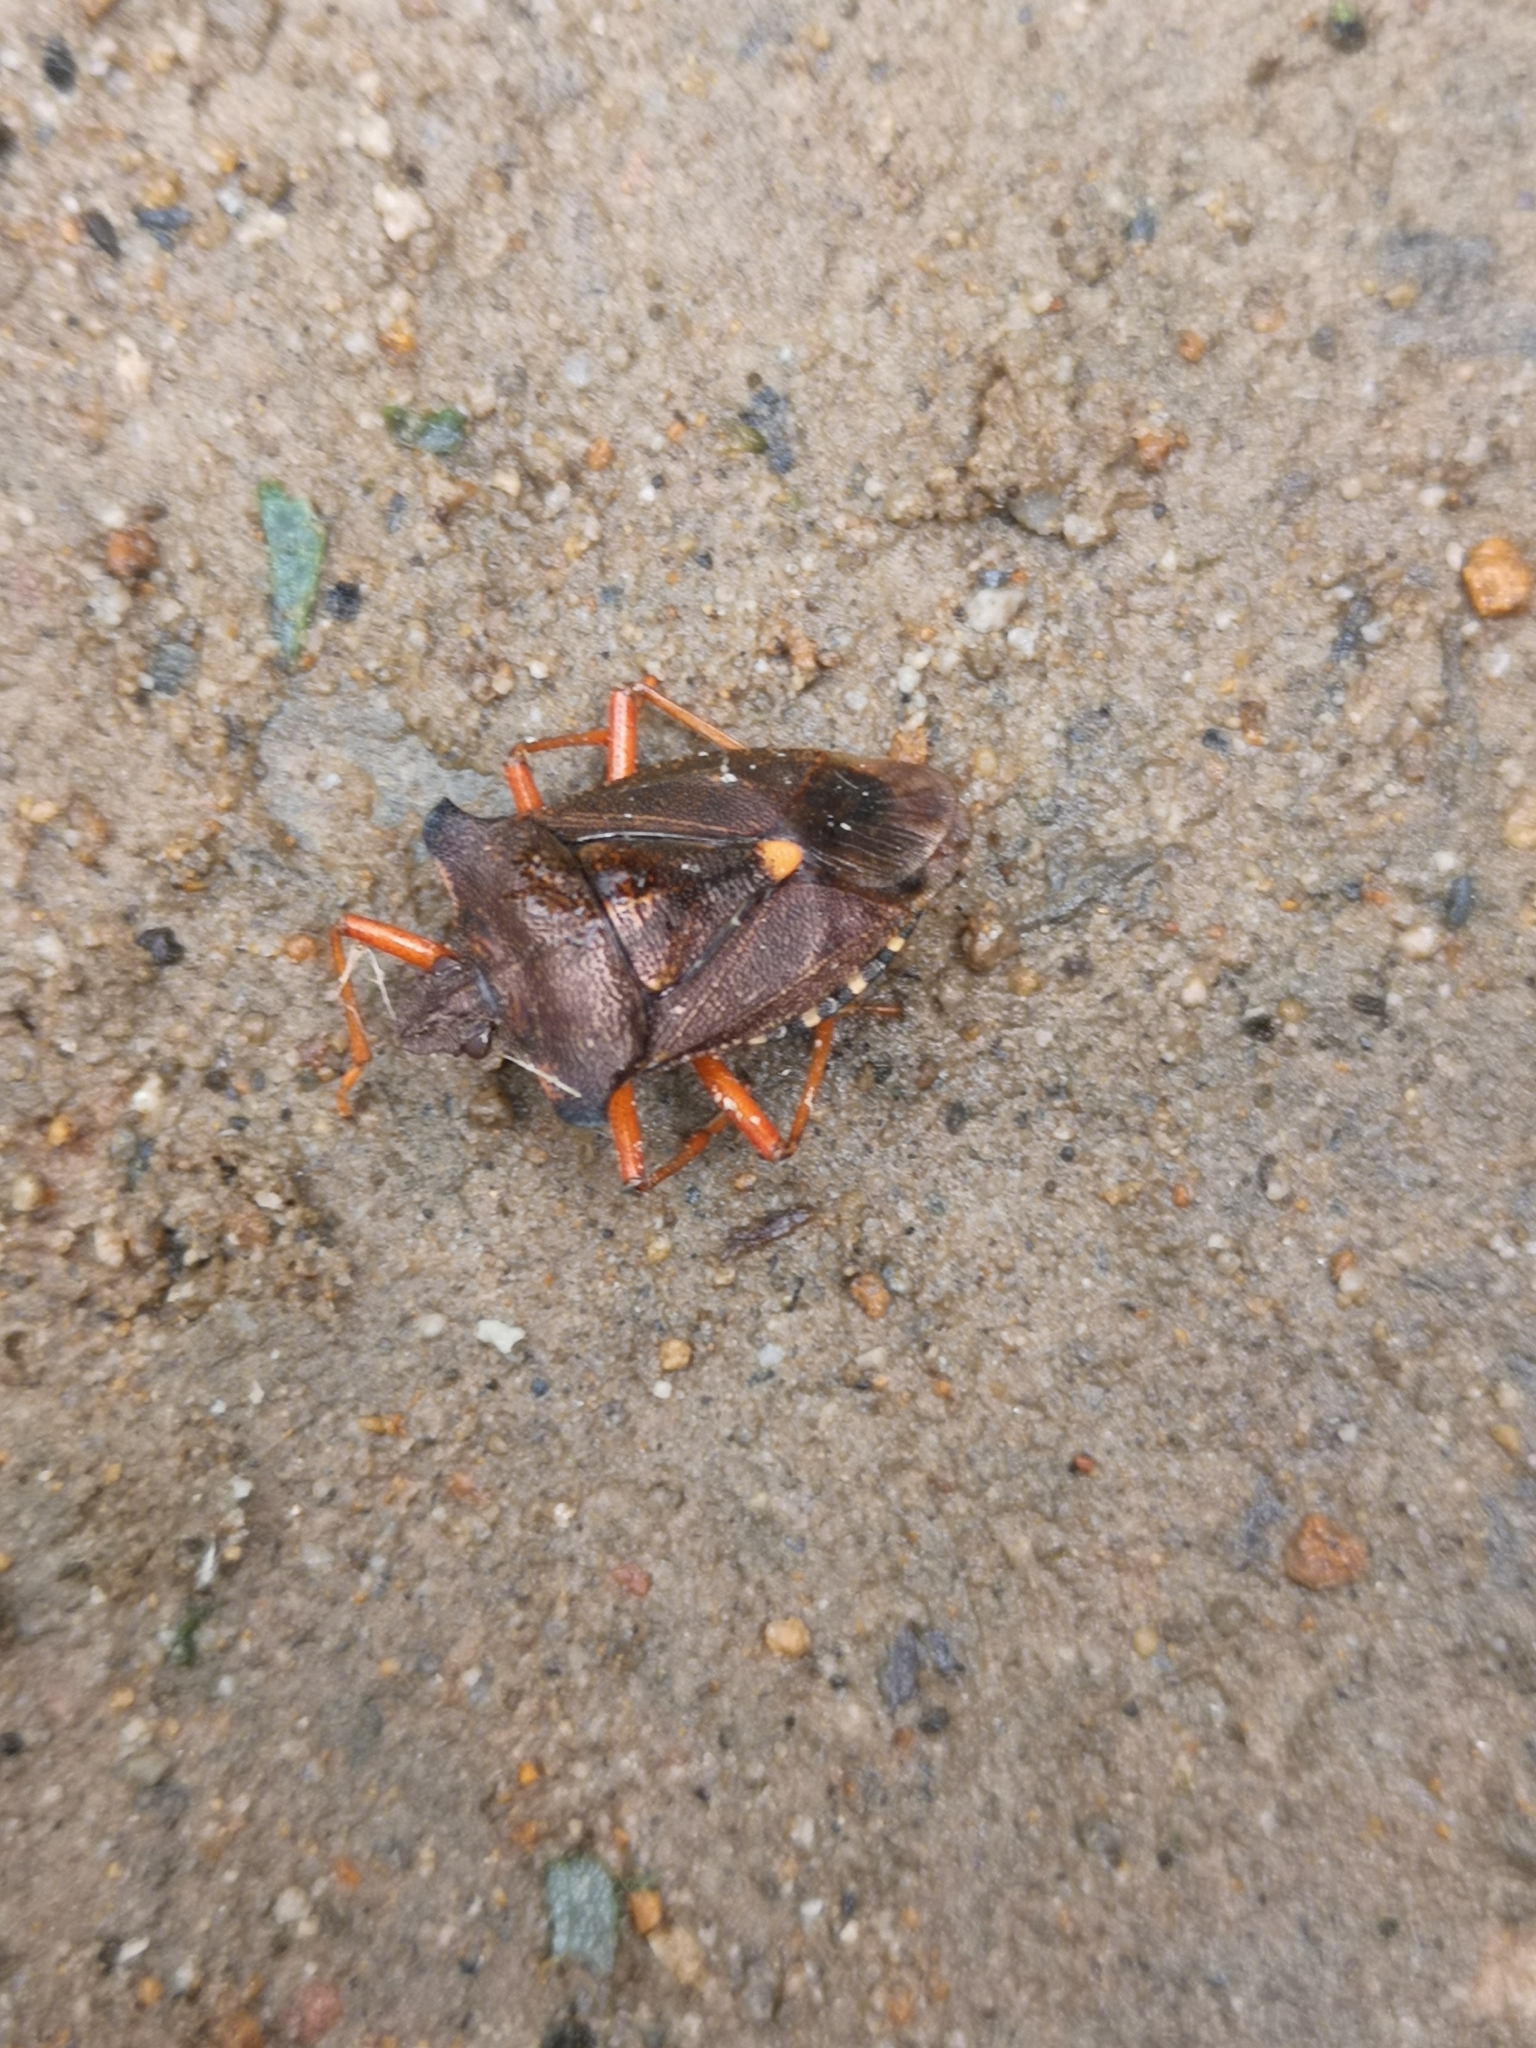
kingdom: Animalia
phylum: Arthropoda
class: Insecta
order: Hemiptera
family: Pentatomidae
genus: Pentatoma
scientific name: Pentatoma rufipes
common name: Forest bug
